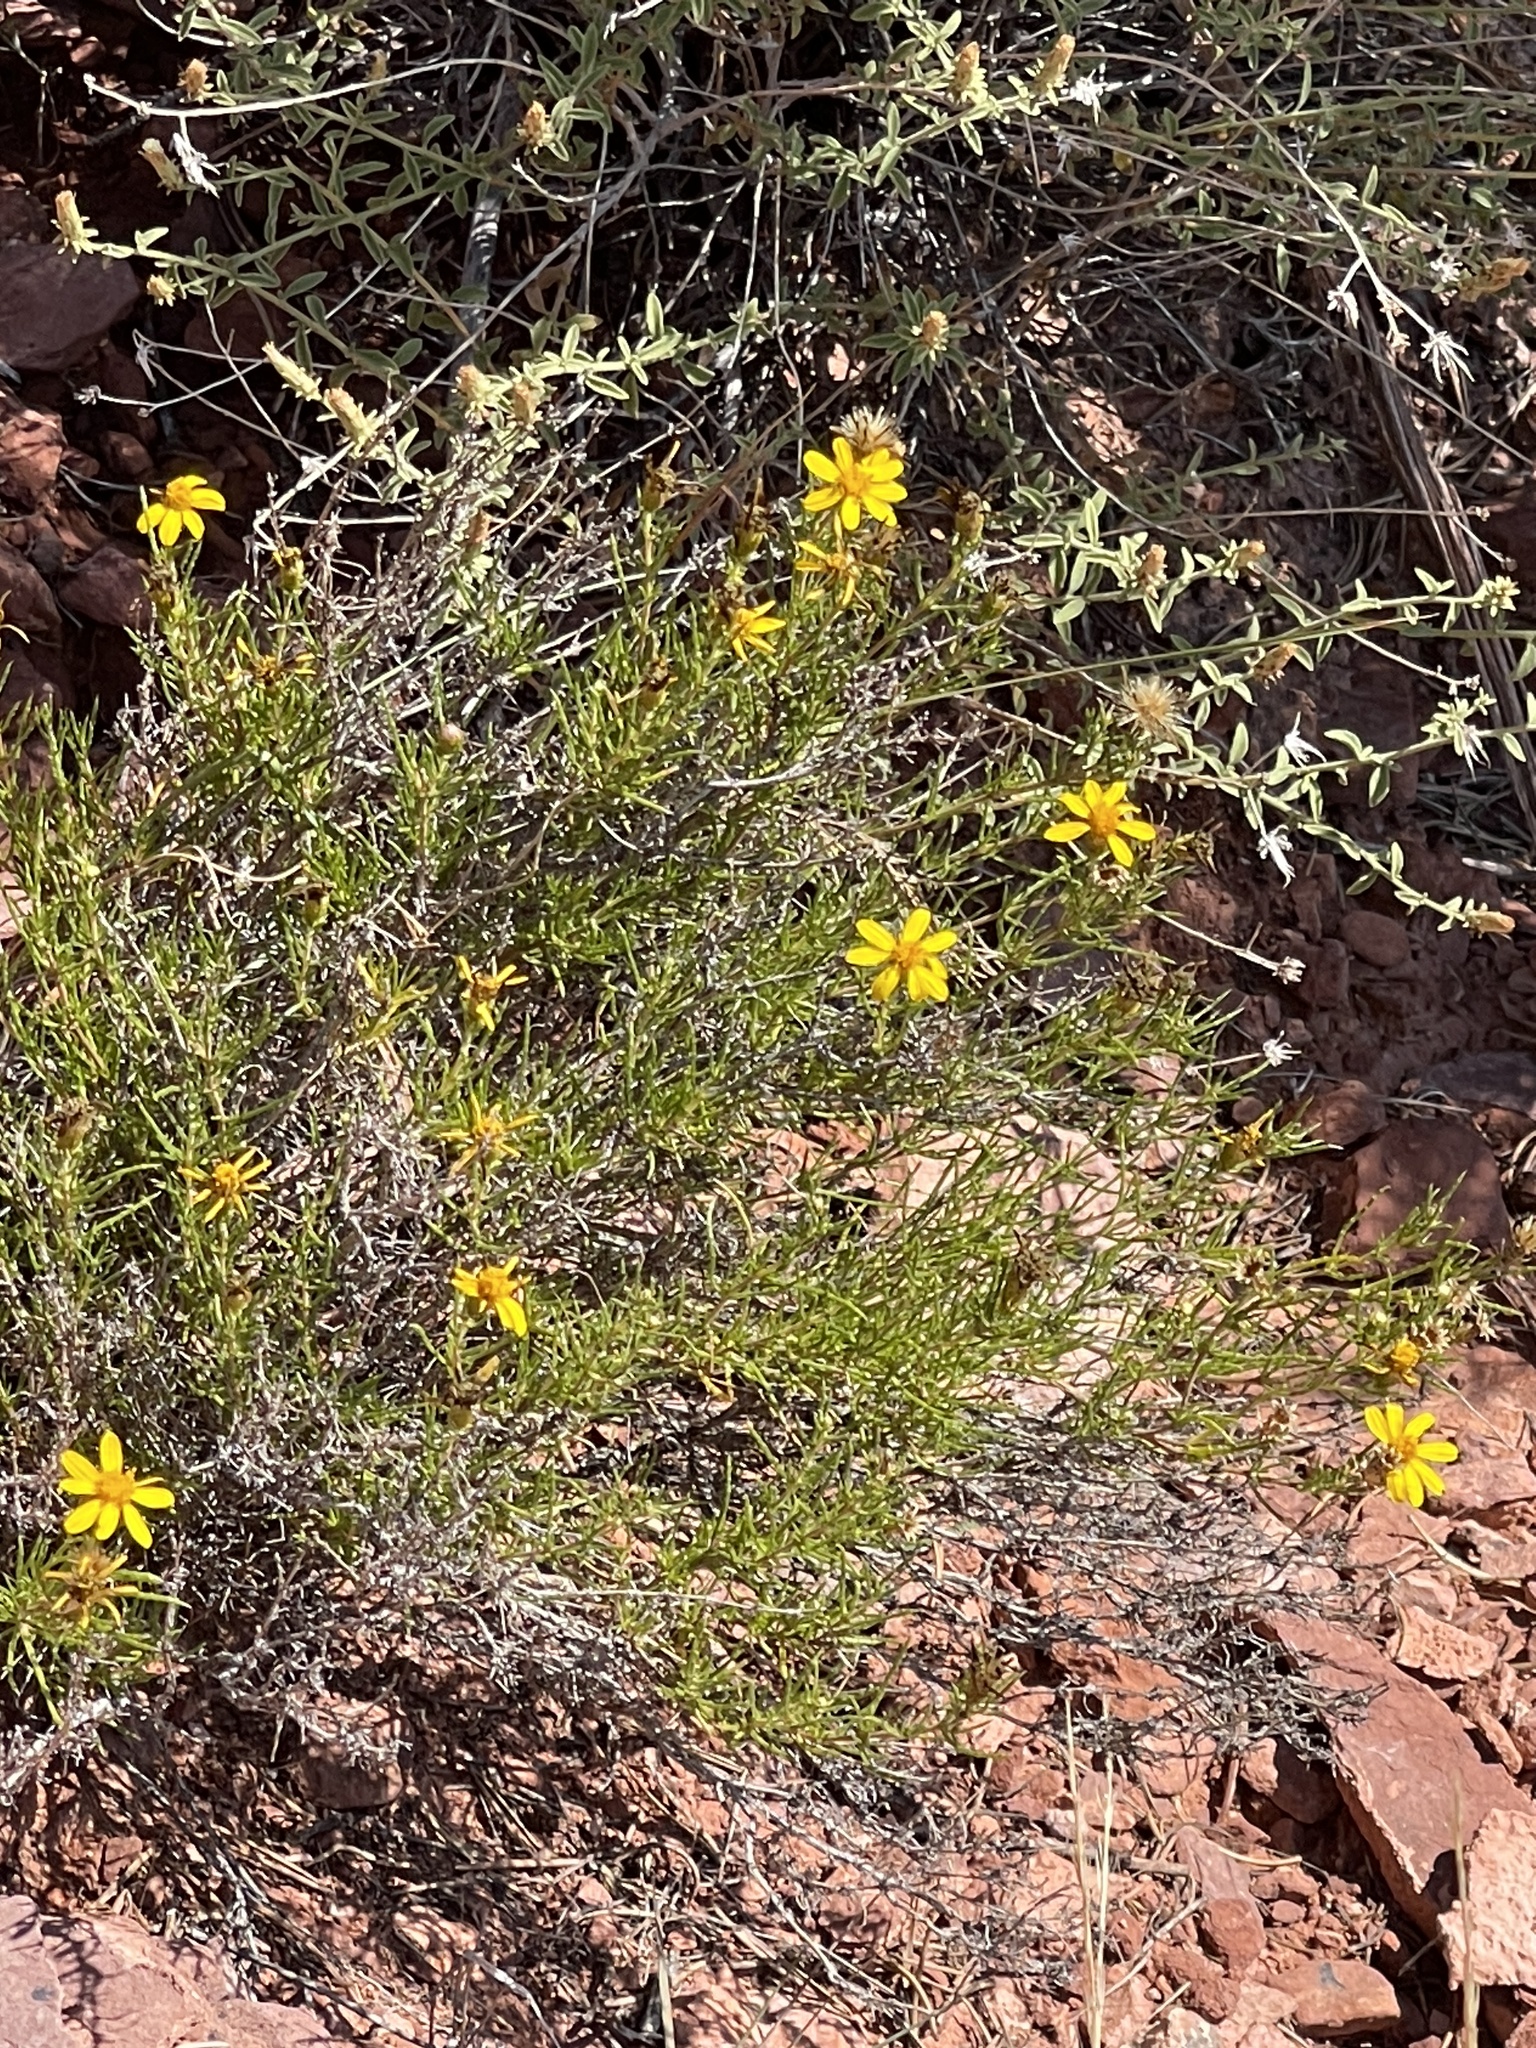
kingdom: Plantae
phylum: Tracheophyta
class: Magnoliopsida
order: Asterales
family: Asteraceae
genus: Thymophylla
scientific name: Thymophylla acerosa
